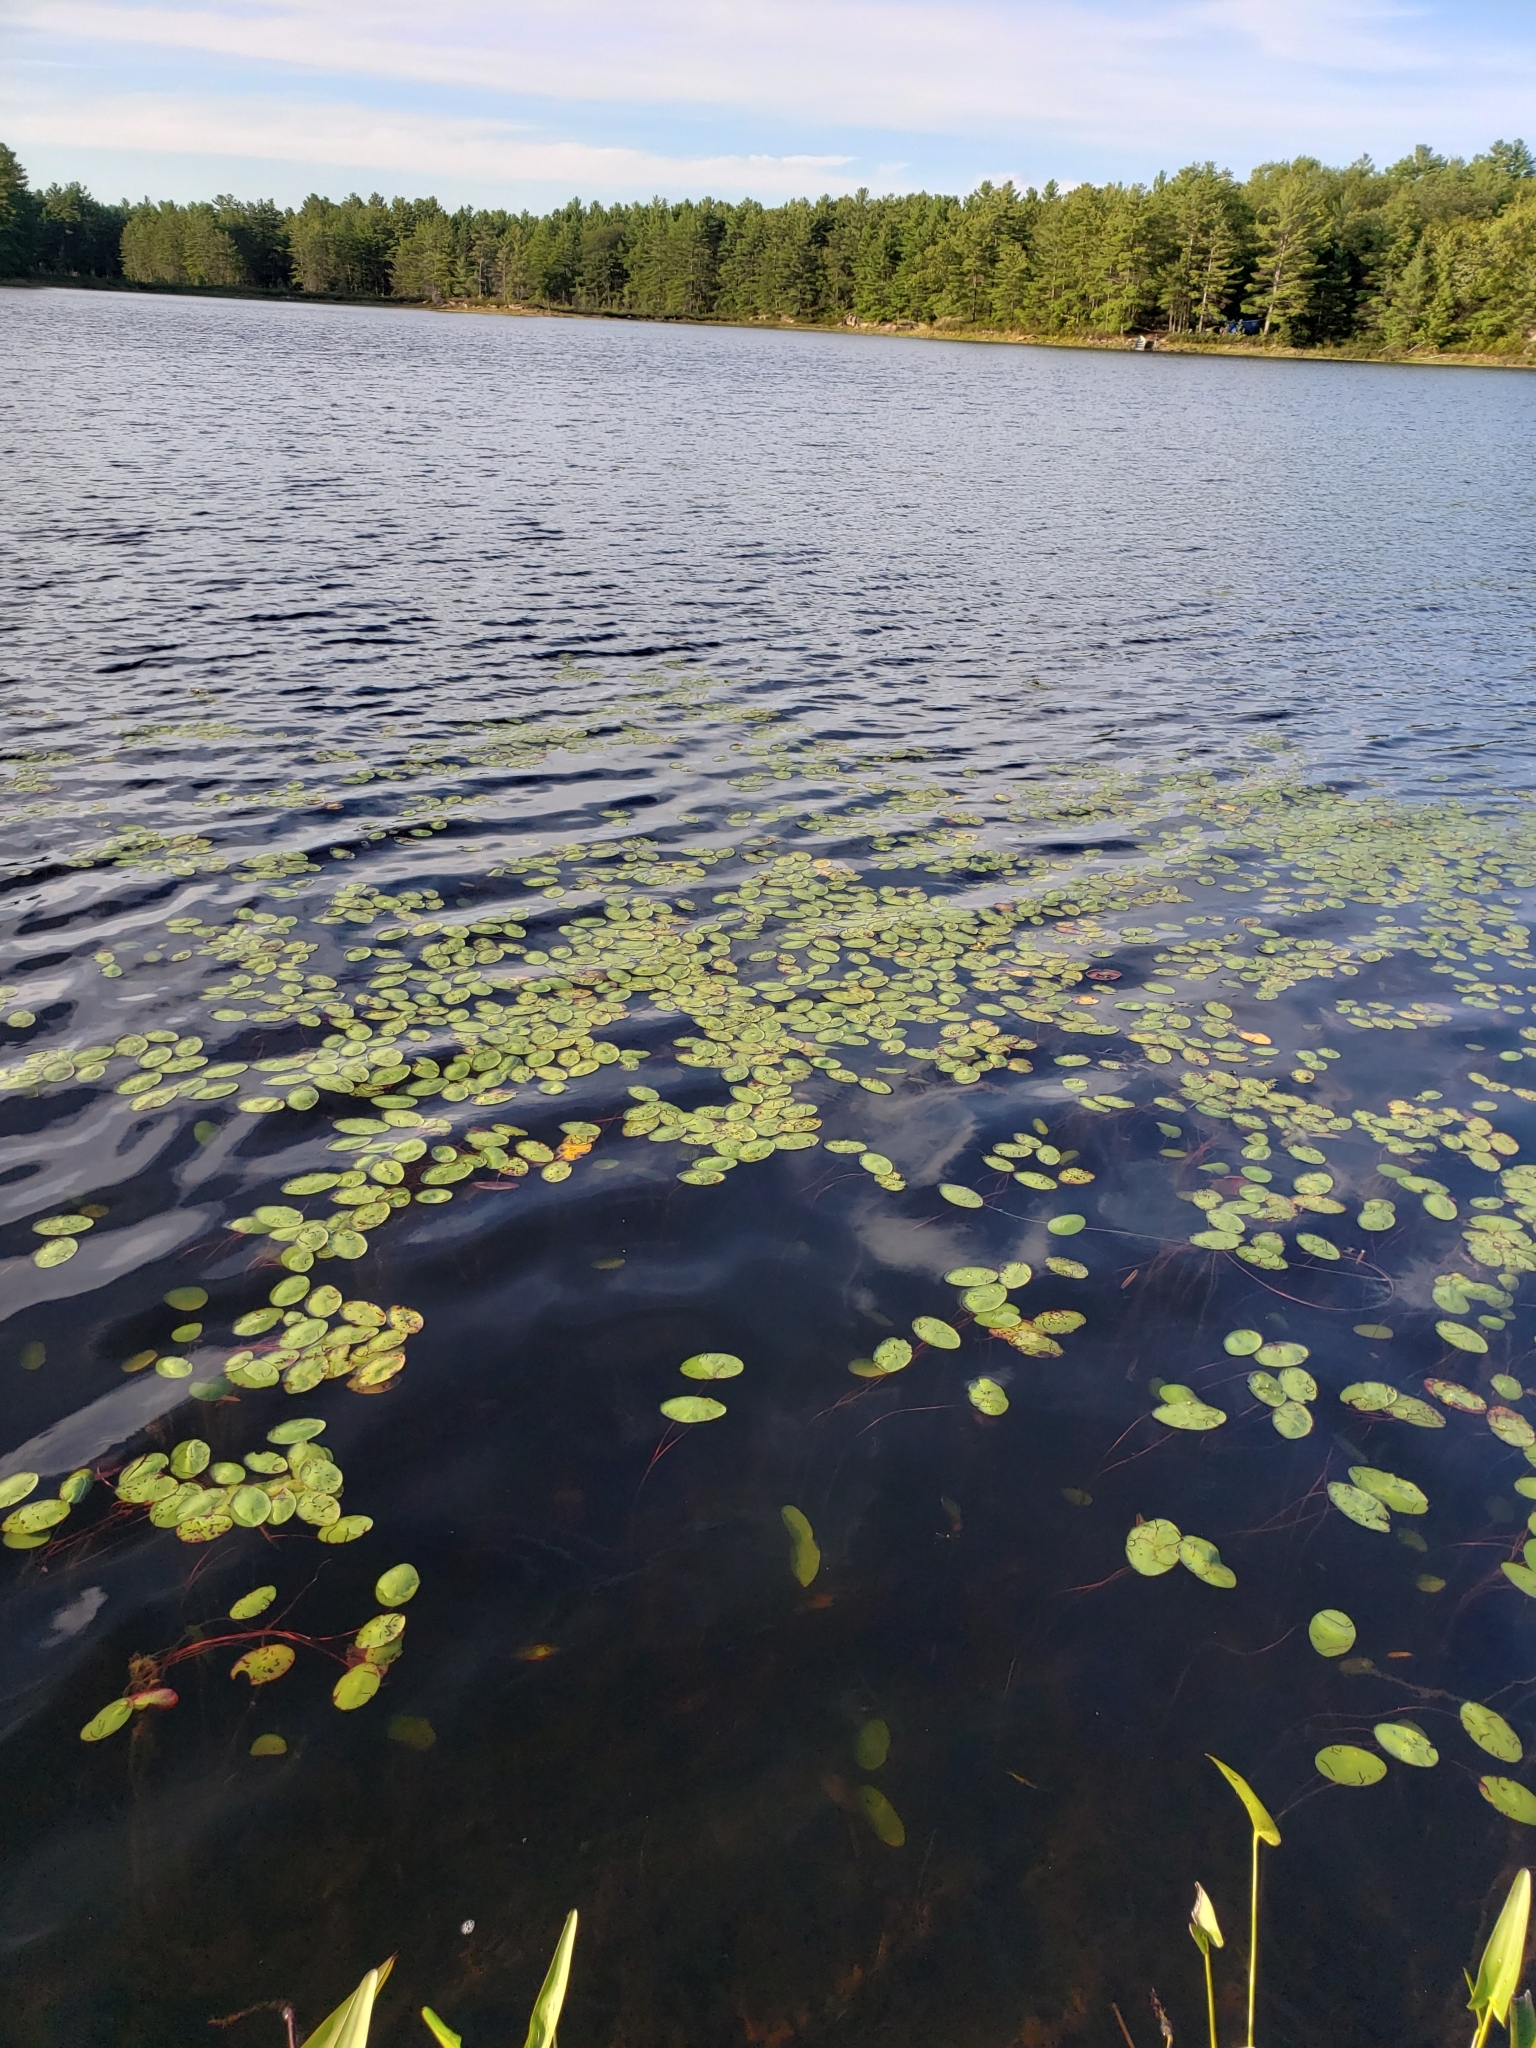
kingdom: Plantae
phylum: Tracheophyta
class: Magnoliopsida
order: Nymphaeales
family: Cabombaceae
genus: Brasenia
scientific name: Brasenia schreberi
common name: Water-shield
